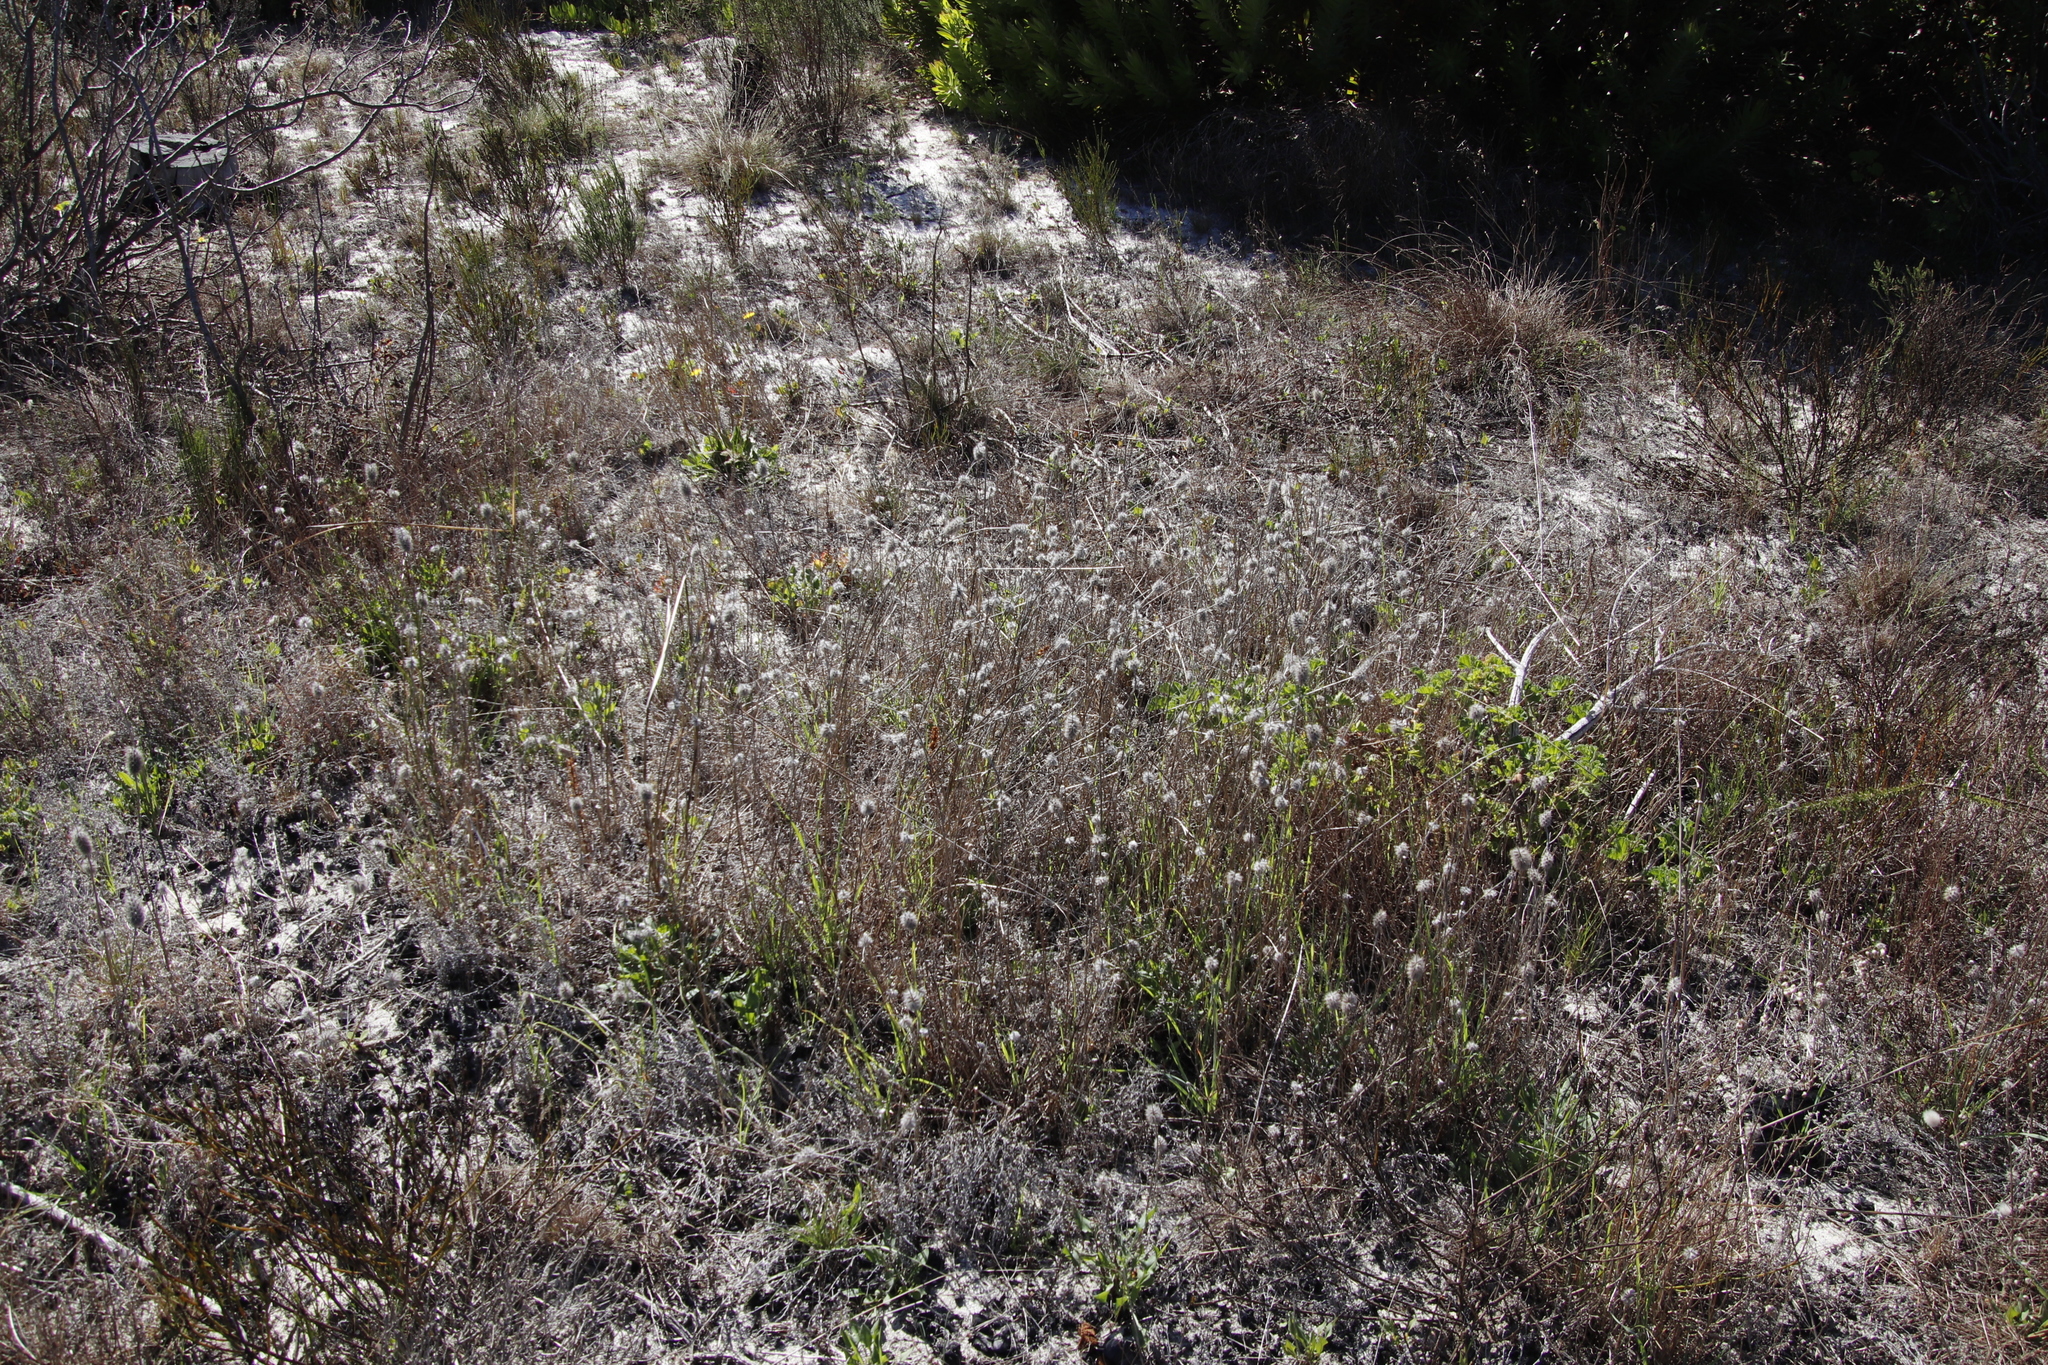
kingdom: Plantae
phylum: Tracheophyta
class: Magnoliopsida
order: Fabales
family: Fabaceae
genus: Trifolium
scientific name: Trifolium angustifolium
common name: Narrow clover
